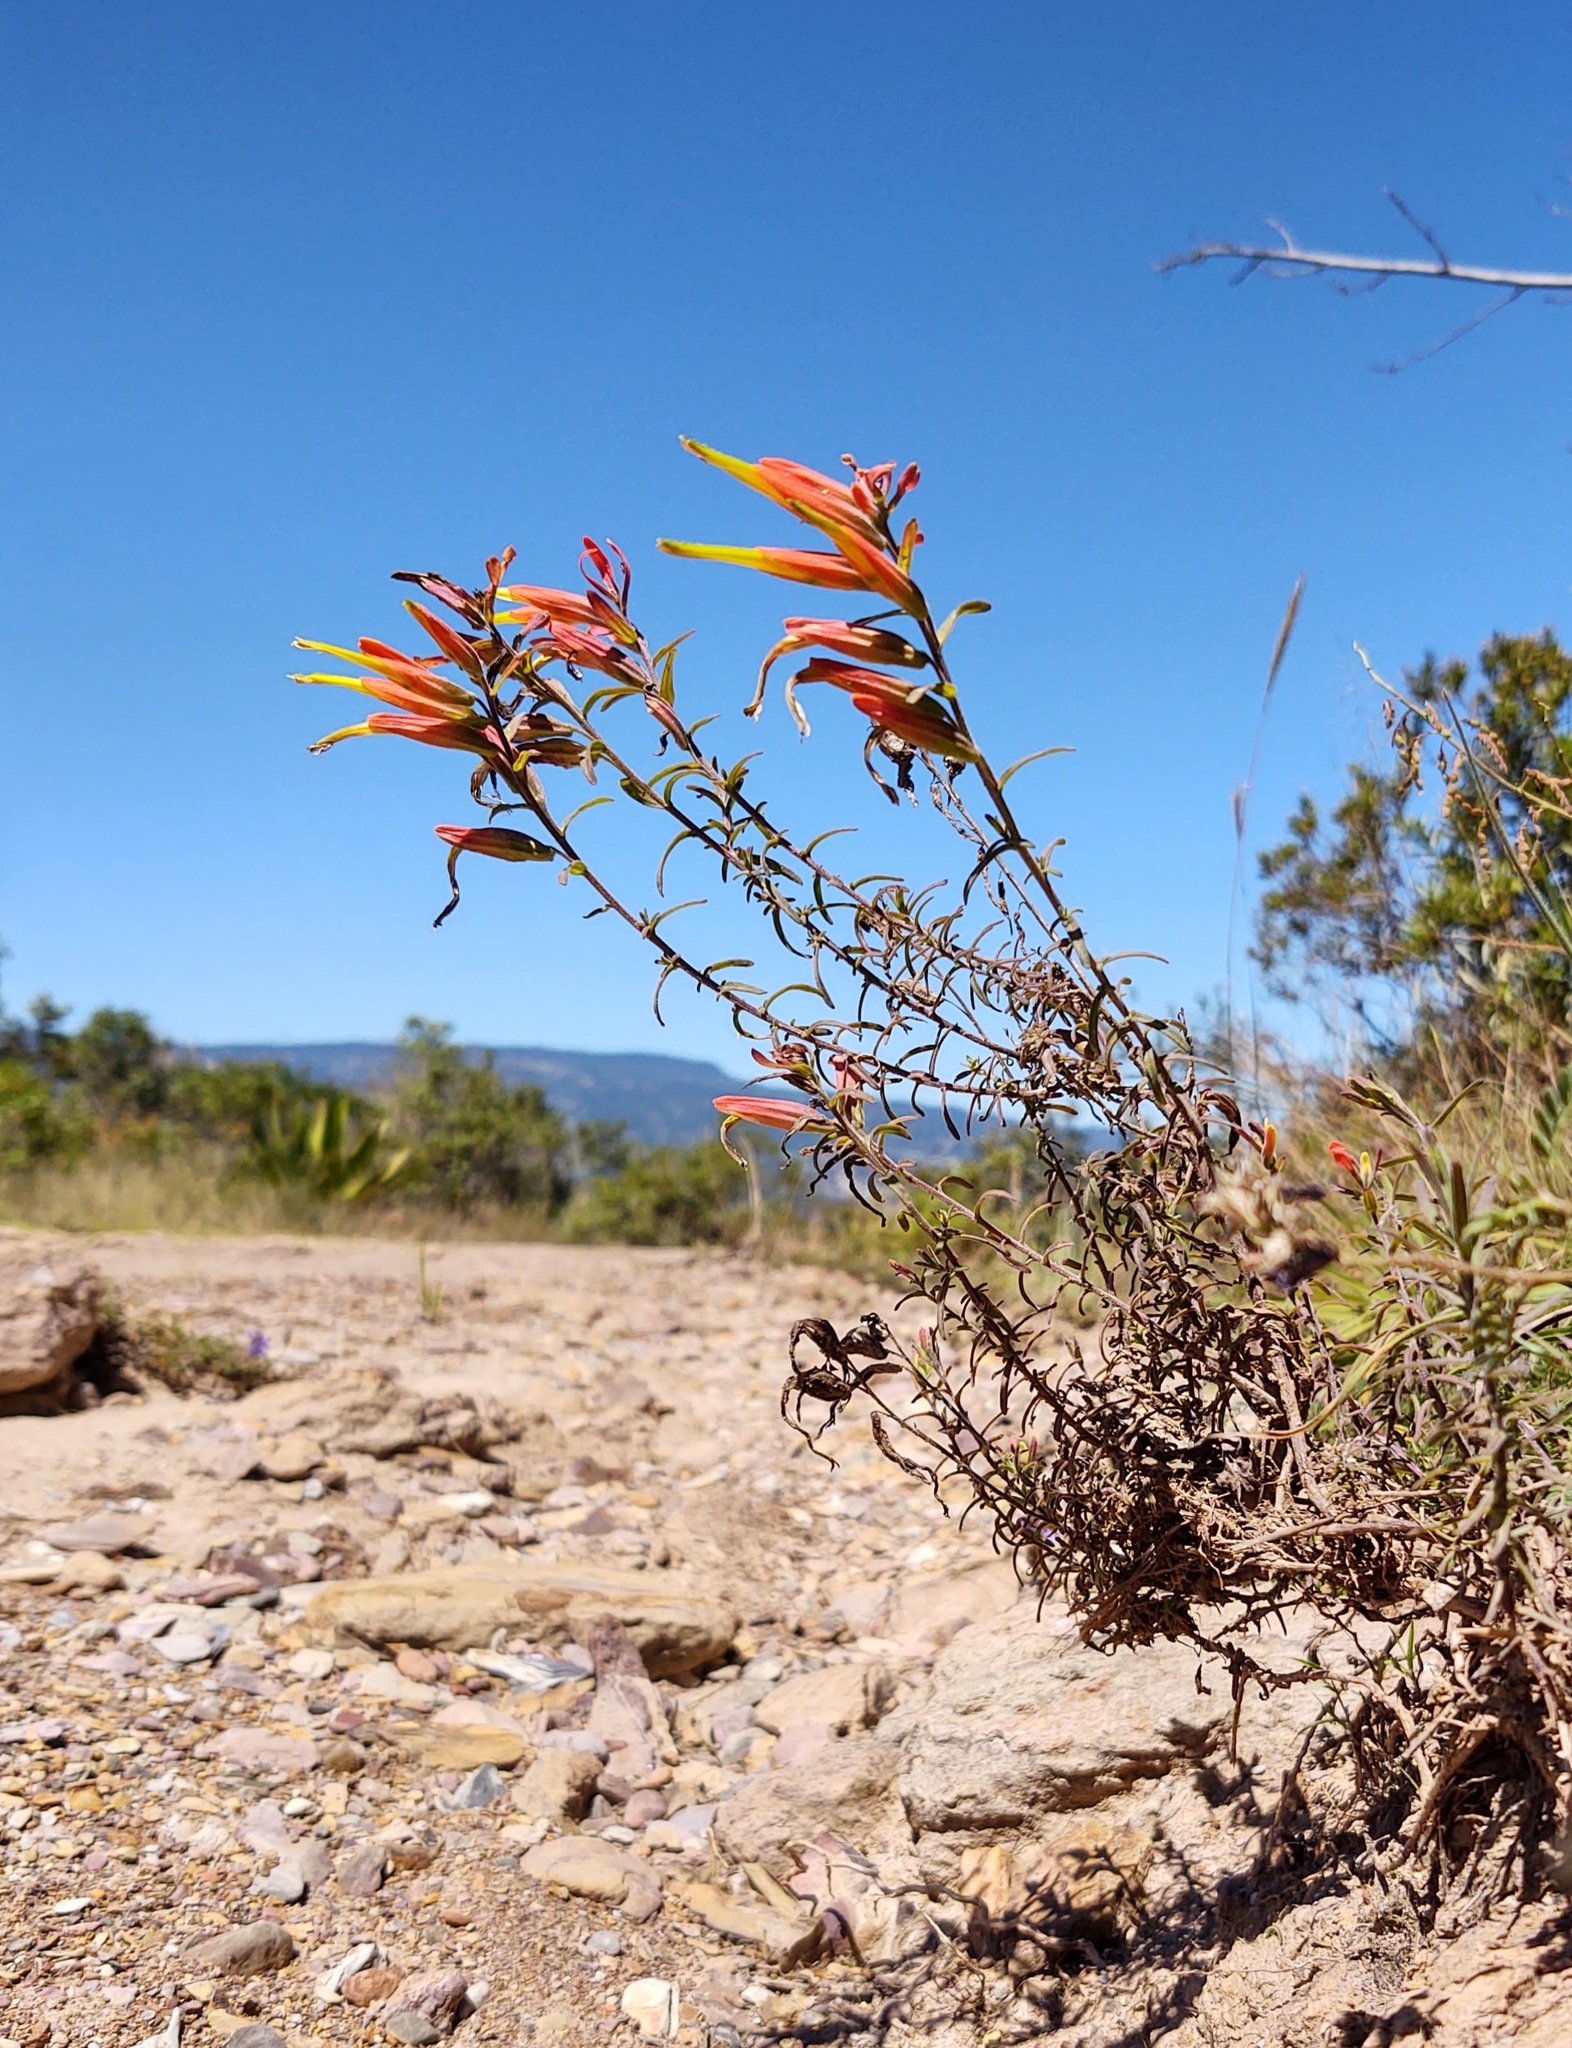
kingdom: Plantae
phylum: Tracheophyta
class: Magnoliopsida
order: Lamiales
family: Orobanchaceae
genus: Castilleja
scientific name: Castilleja integrifolia
